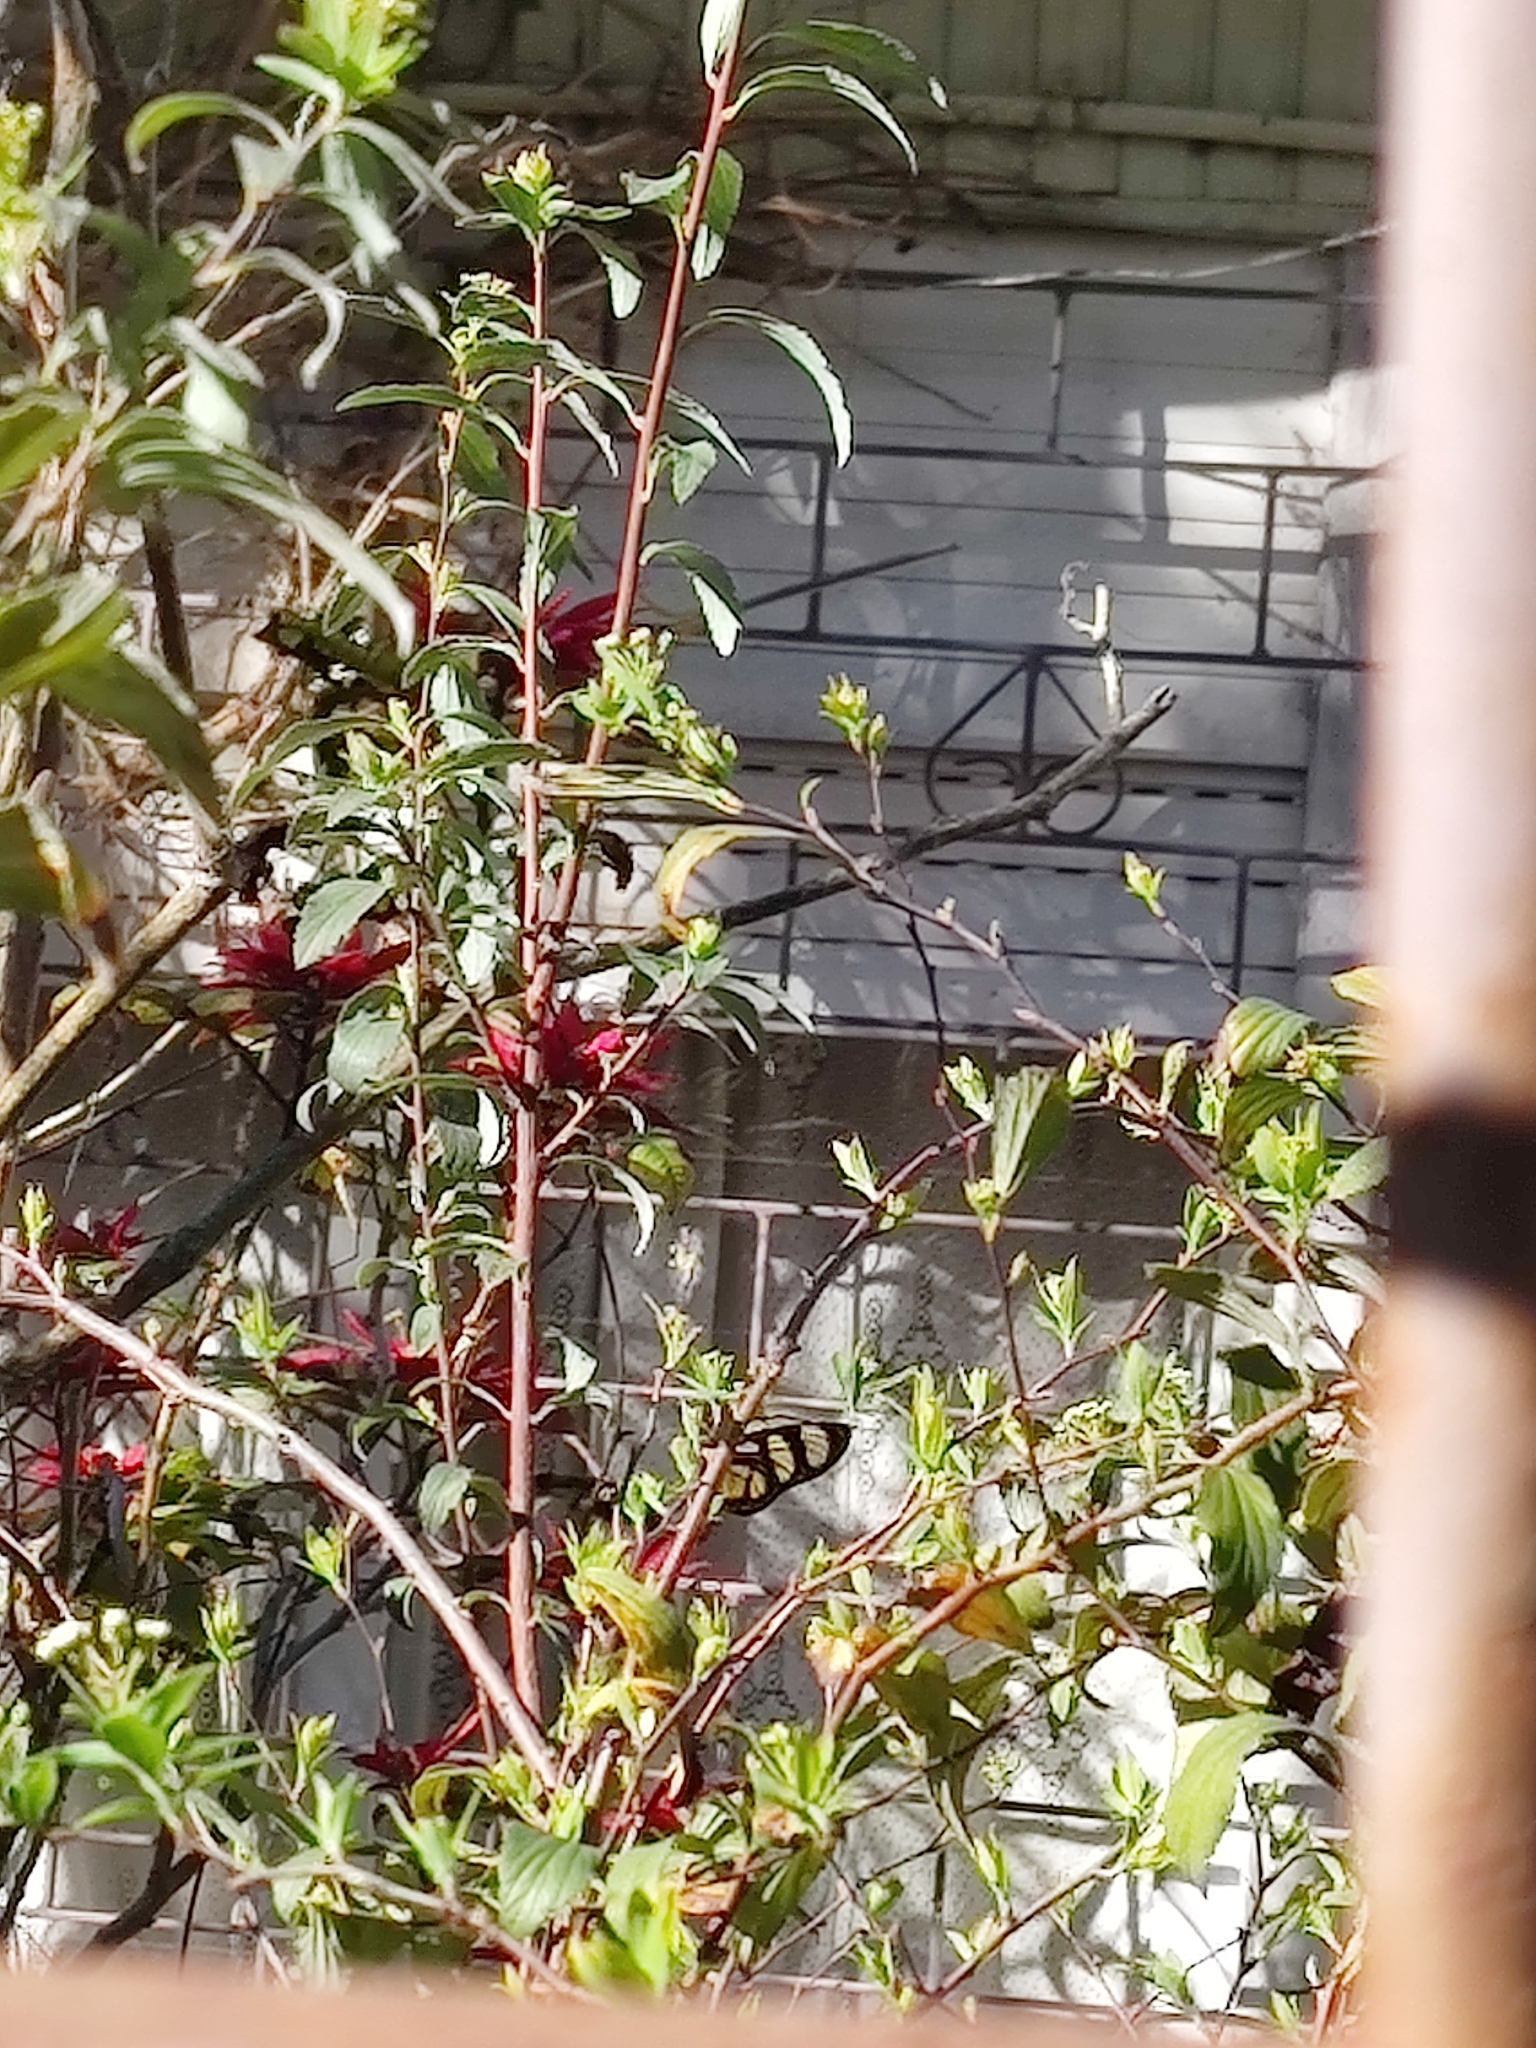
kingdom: Animalia
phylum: Arthropoda
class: Insecta
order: Lepidoptera
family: Nymphalidae
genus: Methona
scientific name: Methona themisto
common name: Themisto amberwing
